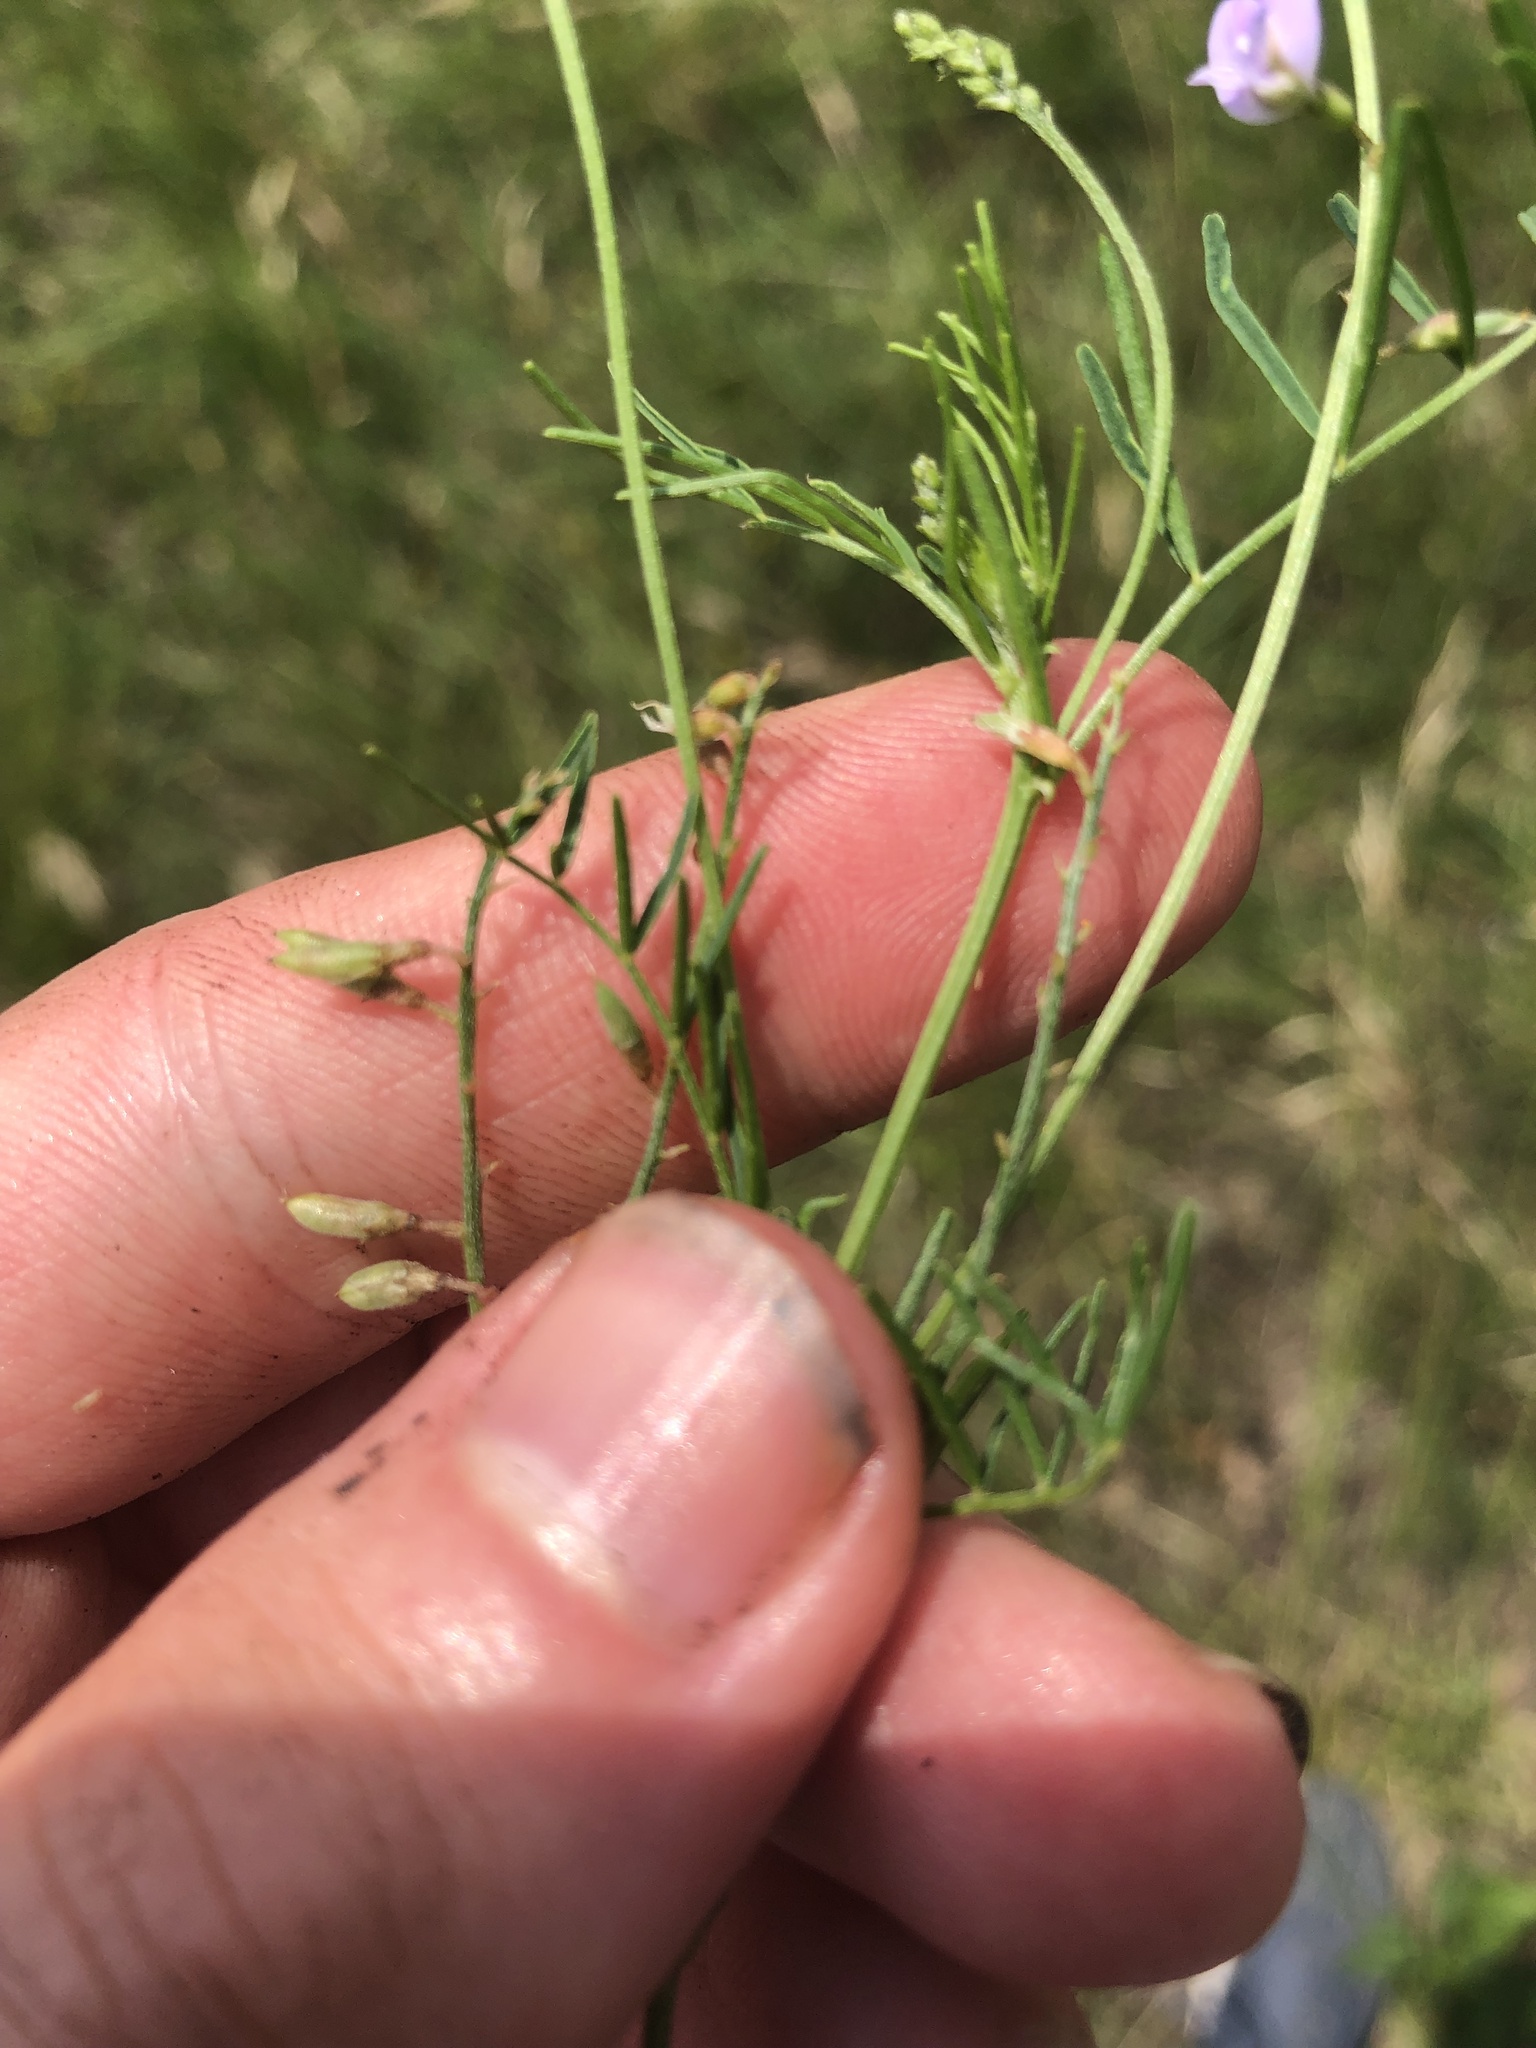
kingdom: Plantae
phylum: Tracheophyta
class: Magnoliopsida
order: Fabales
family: Fabaceae
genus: Astragalus
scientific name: Astragalus austriacus
